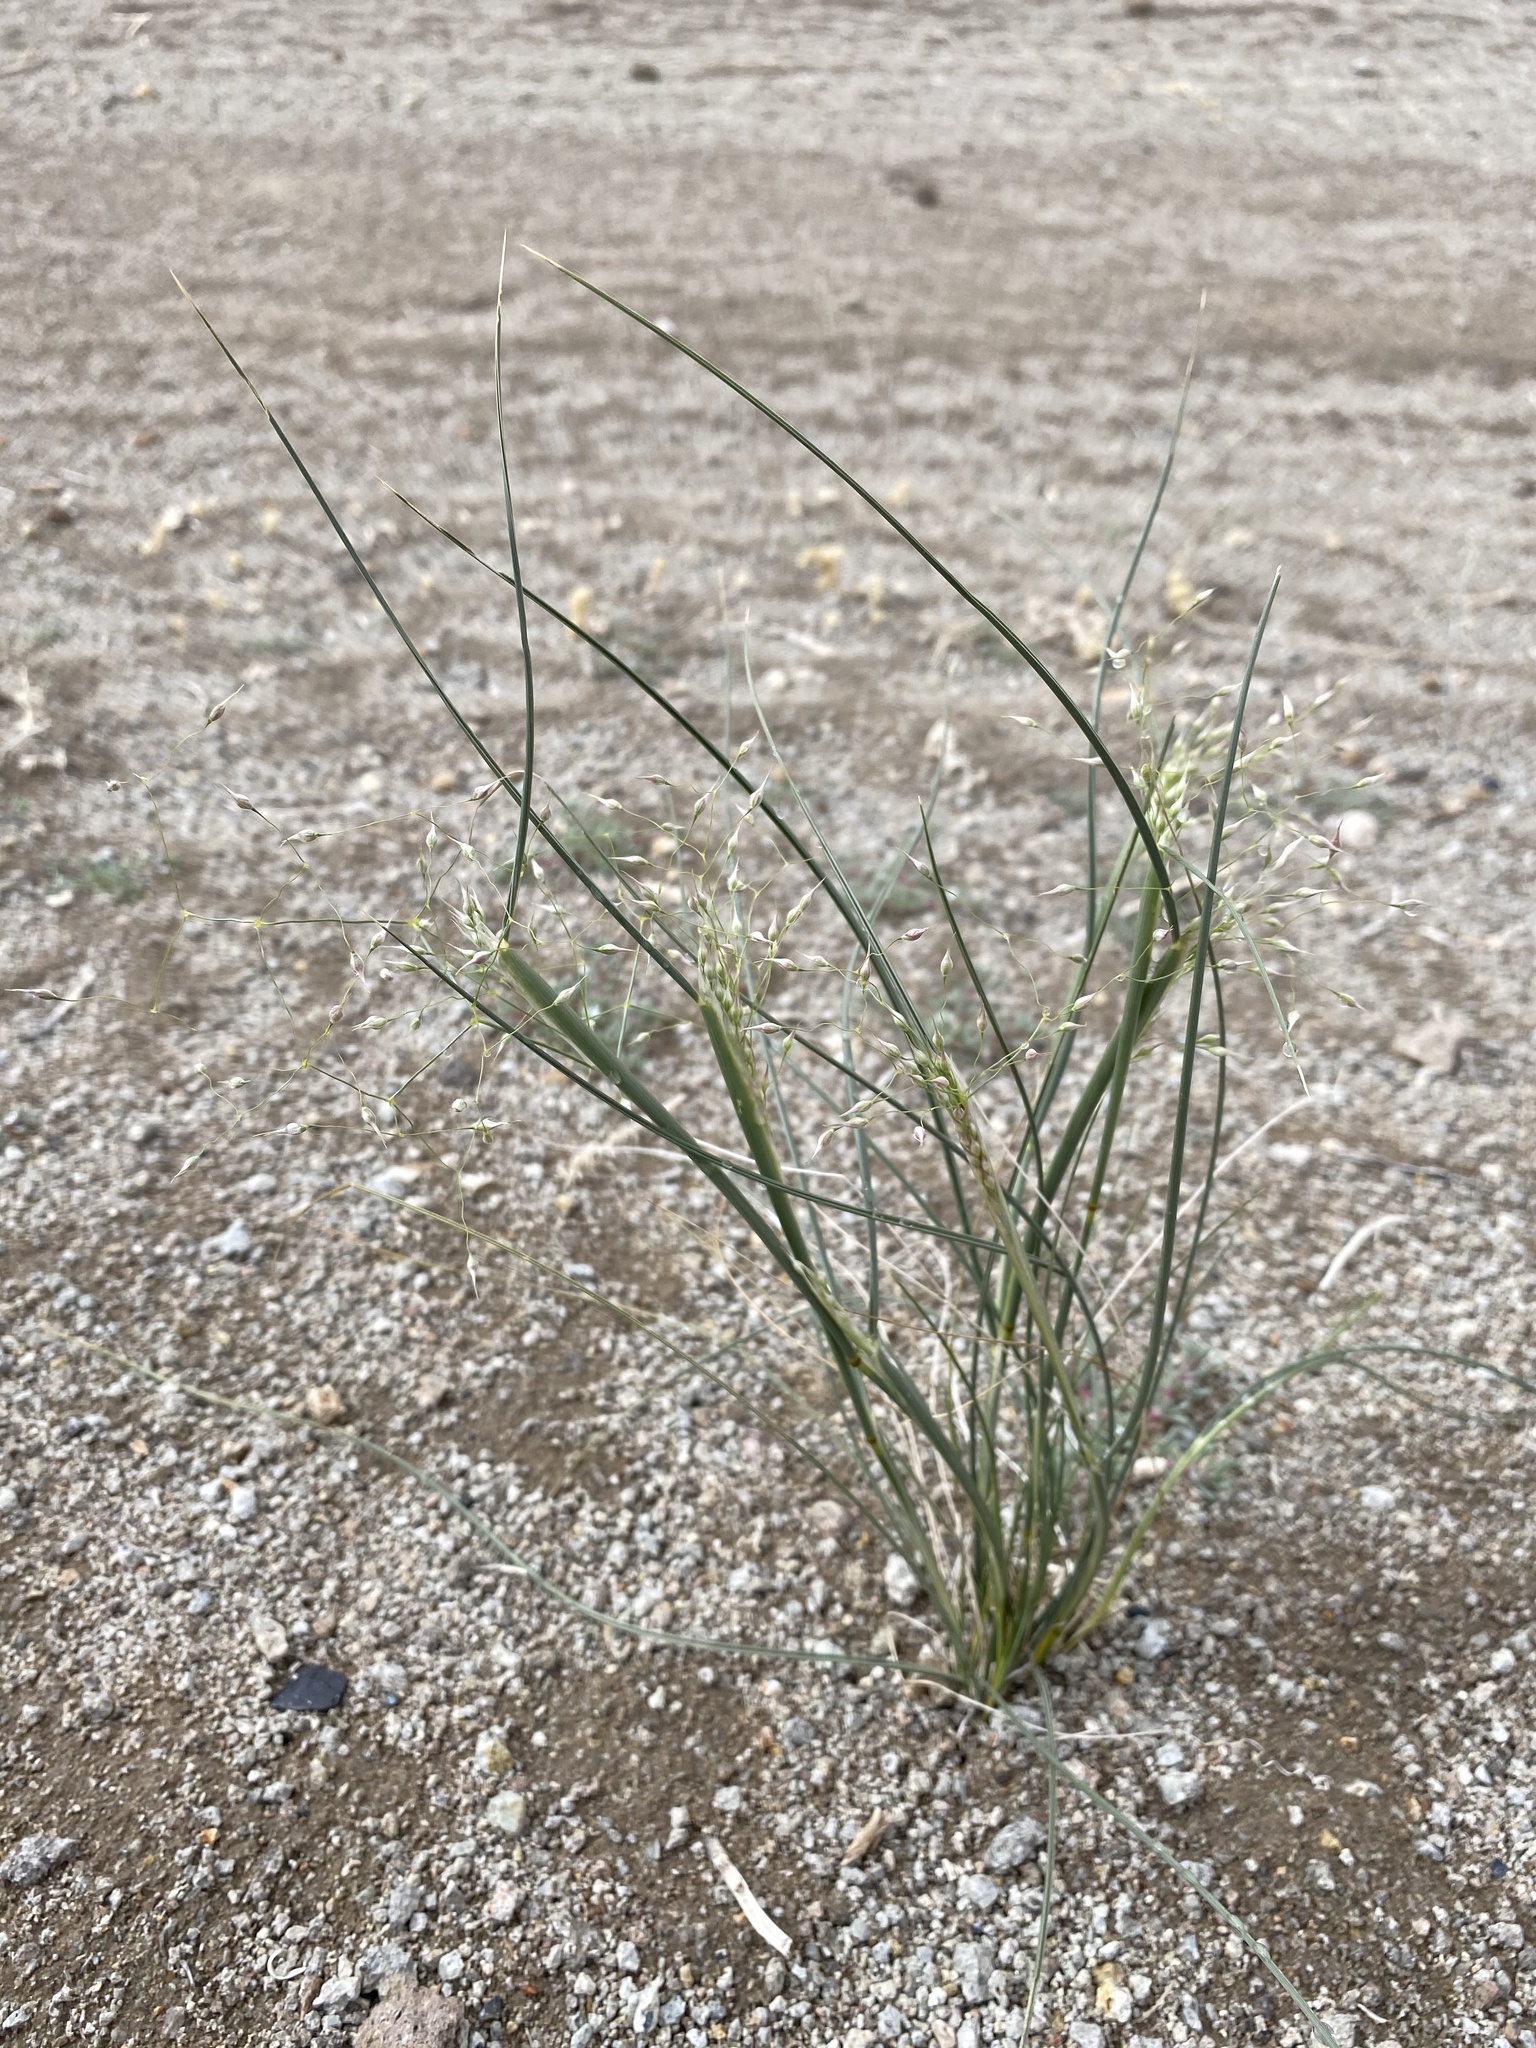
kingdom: Plantae
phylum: Tracheophyta
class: Liliopsida
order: Poales
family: Poaceae
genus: Eriocoma
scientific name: Eriocoma hymenoides
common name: Indian mountain ricegrass
